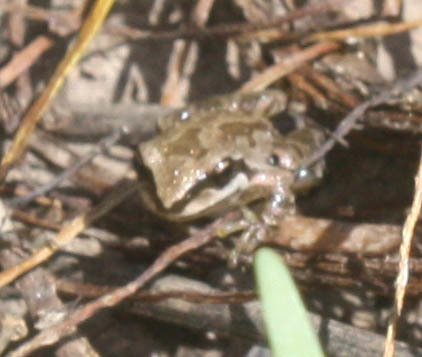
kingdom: Animalia
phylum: Chordata
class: Amphibia
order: Anura
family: Hylidae
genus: Pseudacris
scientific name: Pseudacris regilla
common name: Pacific chorus frog
